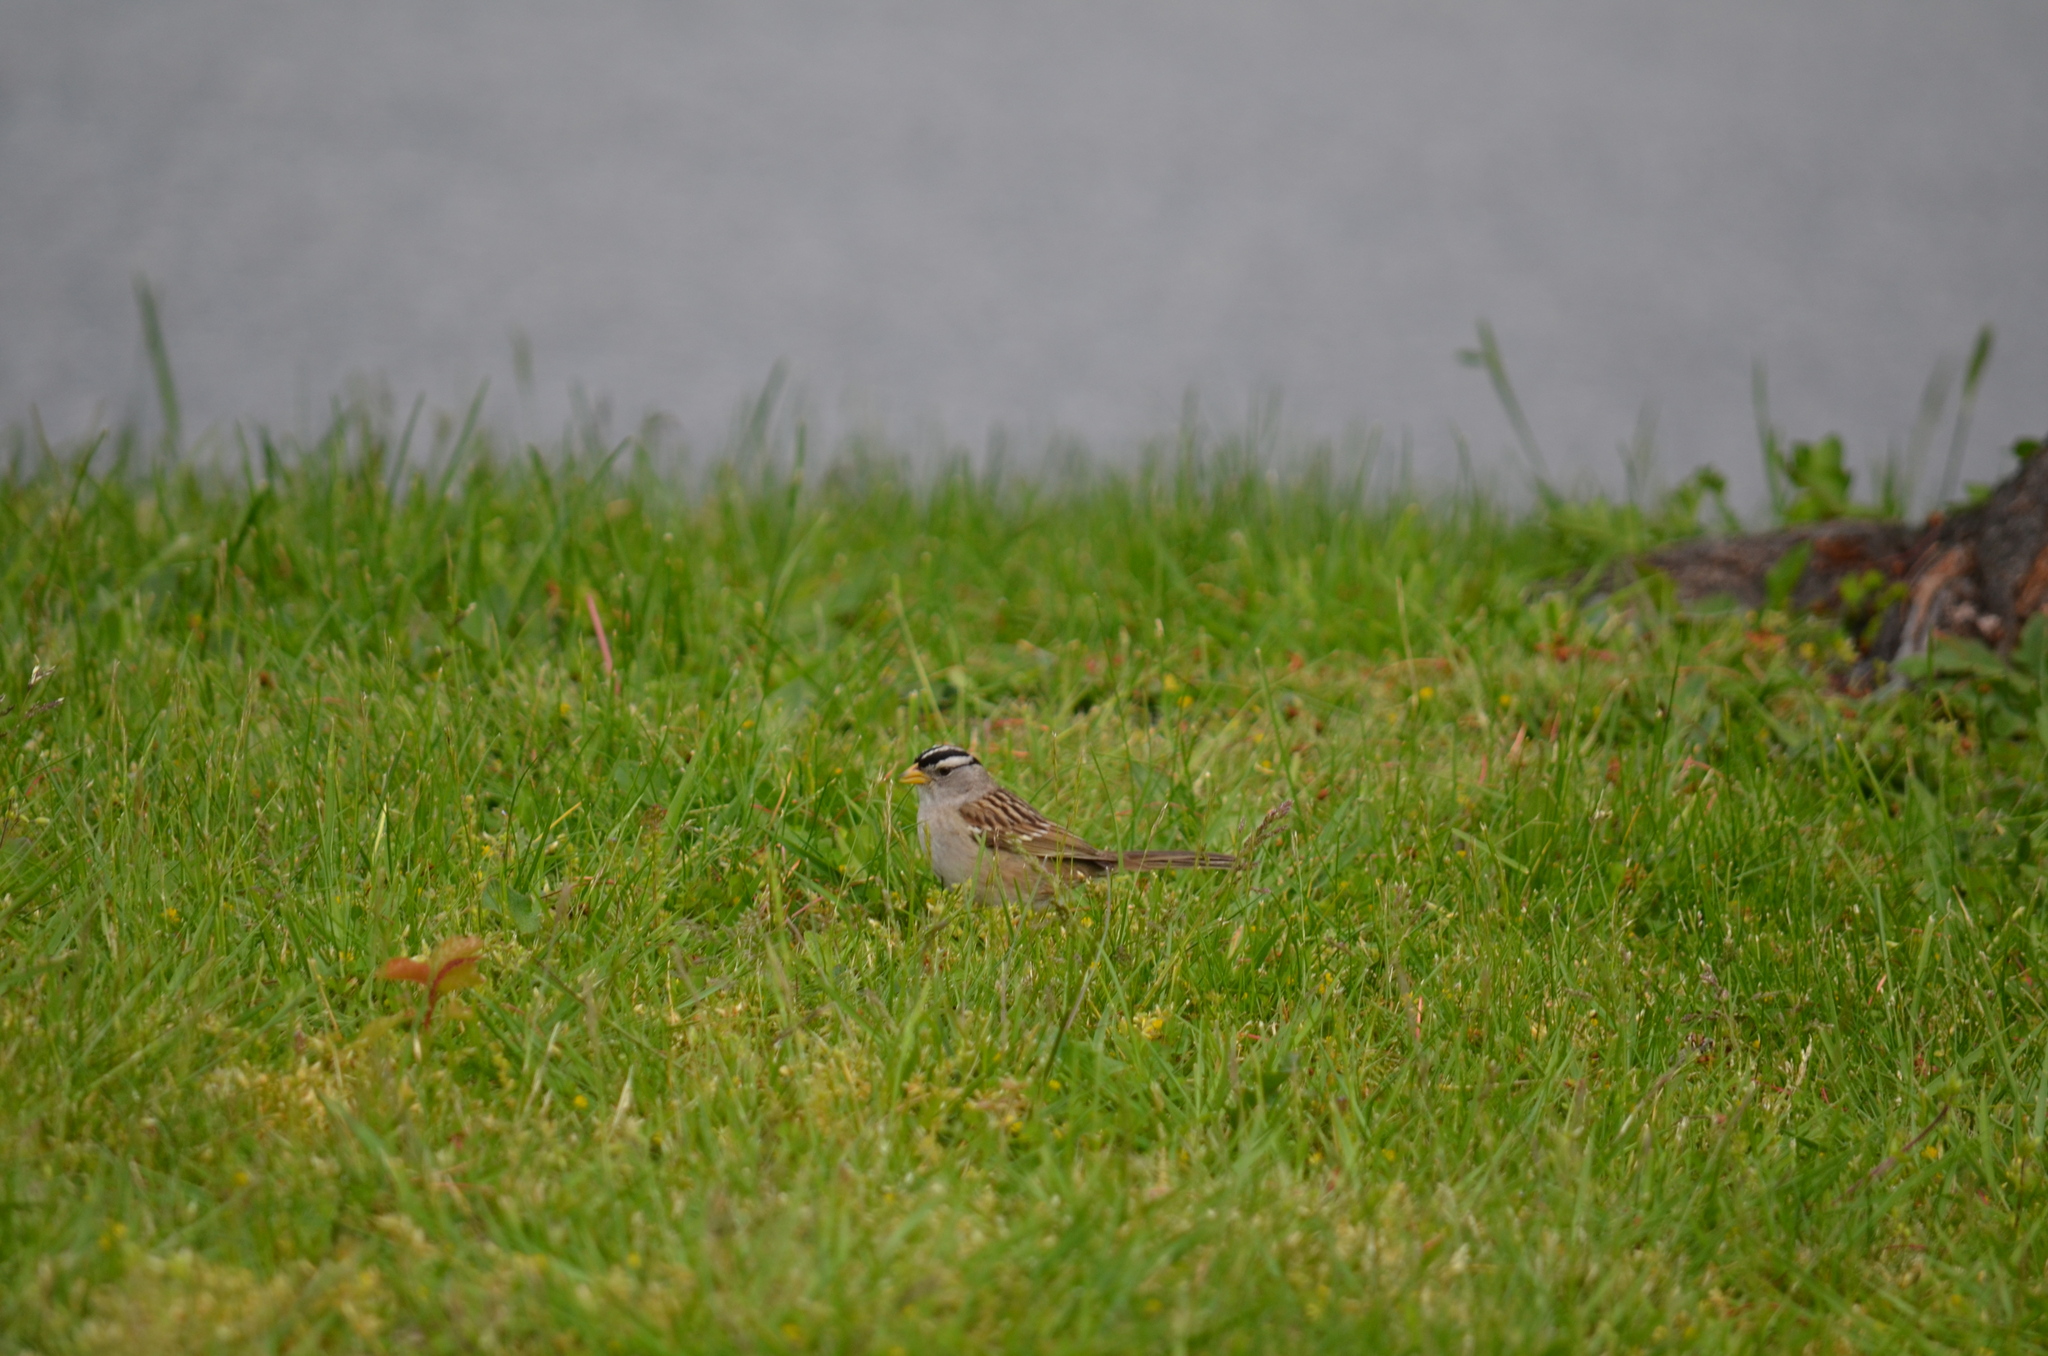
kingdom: Animalia
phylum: Chordata
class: Aves
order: Passeriformes
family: Passerellidae
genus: Zonotrichia
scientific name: Zonotrichia leucophrys
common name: White-crowned sparrow
